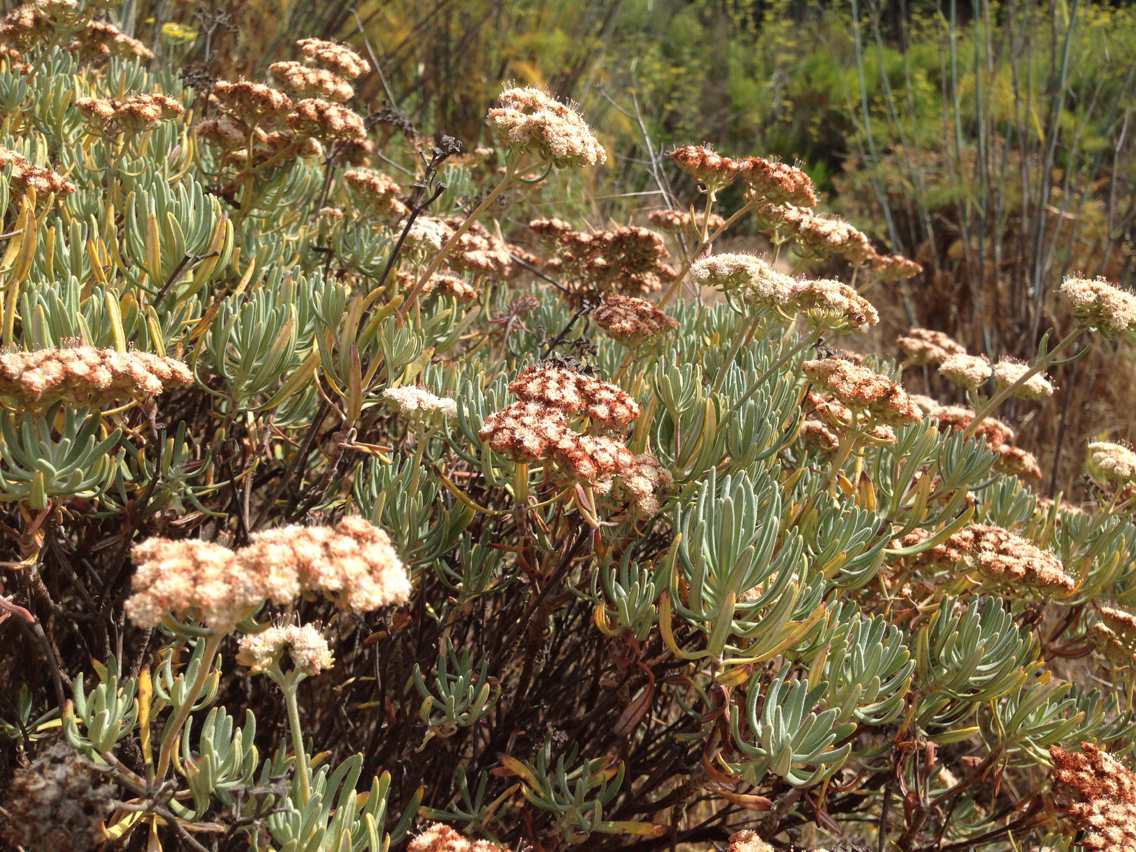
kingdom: Plantae
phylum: Tracheophyta
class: Magnoliopsida
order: Caryophyllales
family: Polygonaceae
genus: Eriogonum
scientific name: Eriogonum arborescens
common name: Island buckwheat
